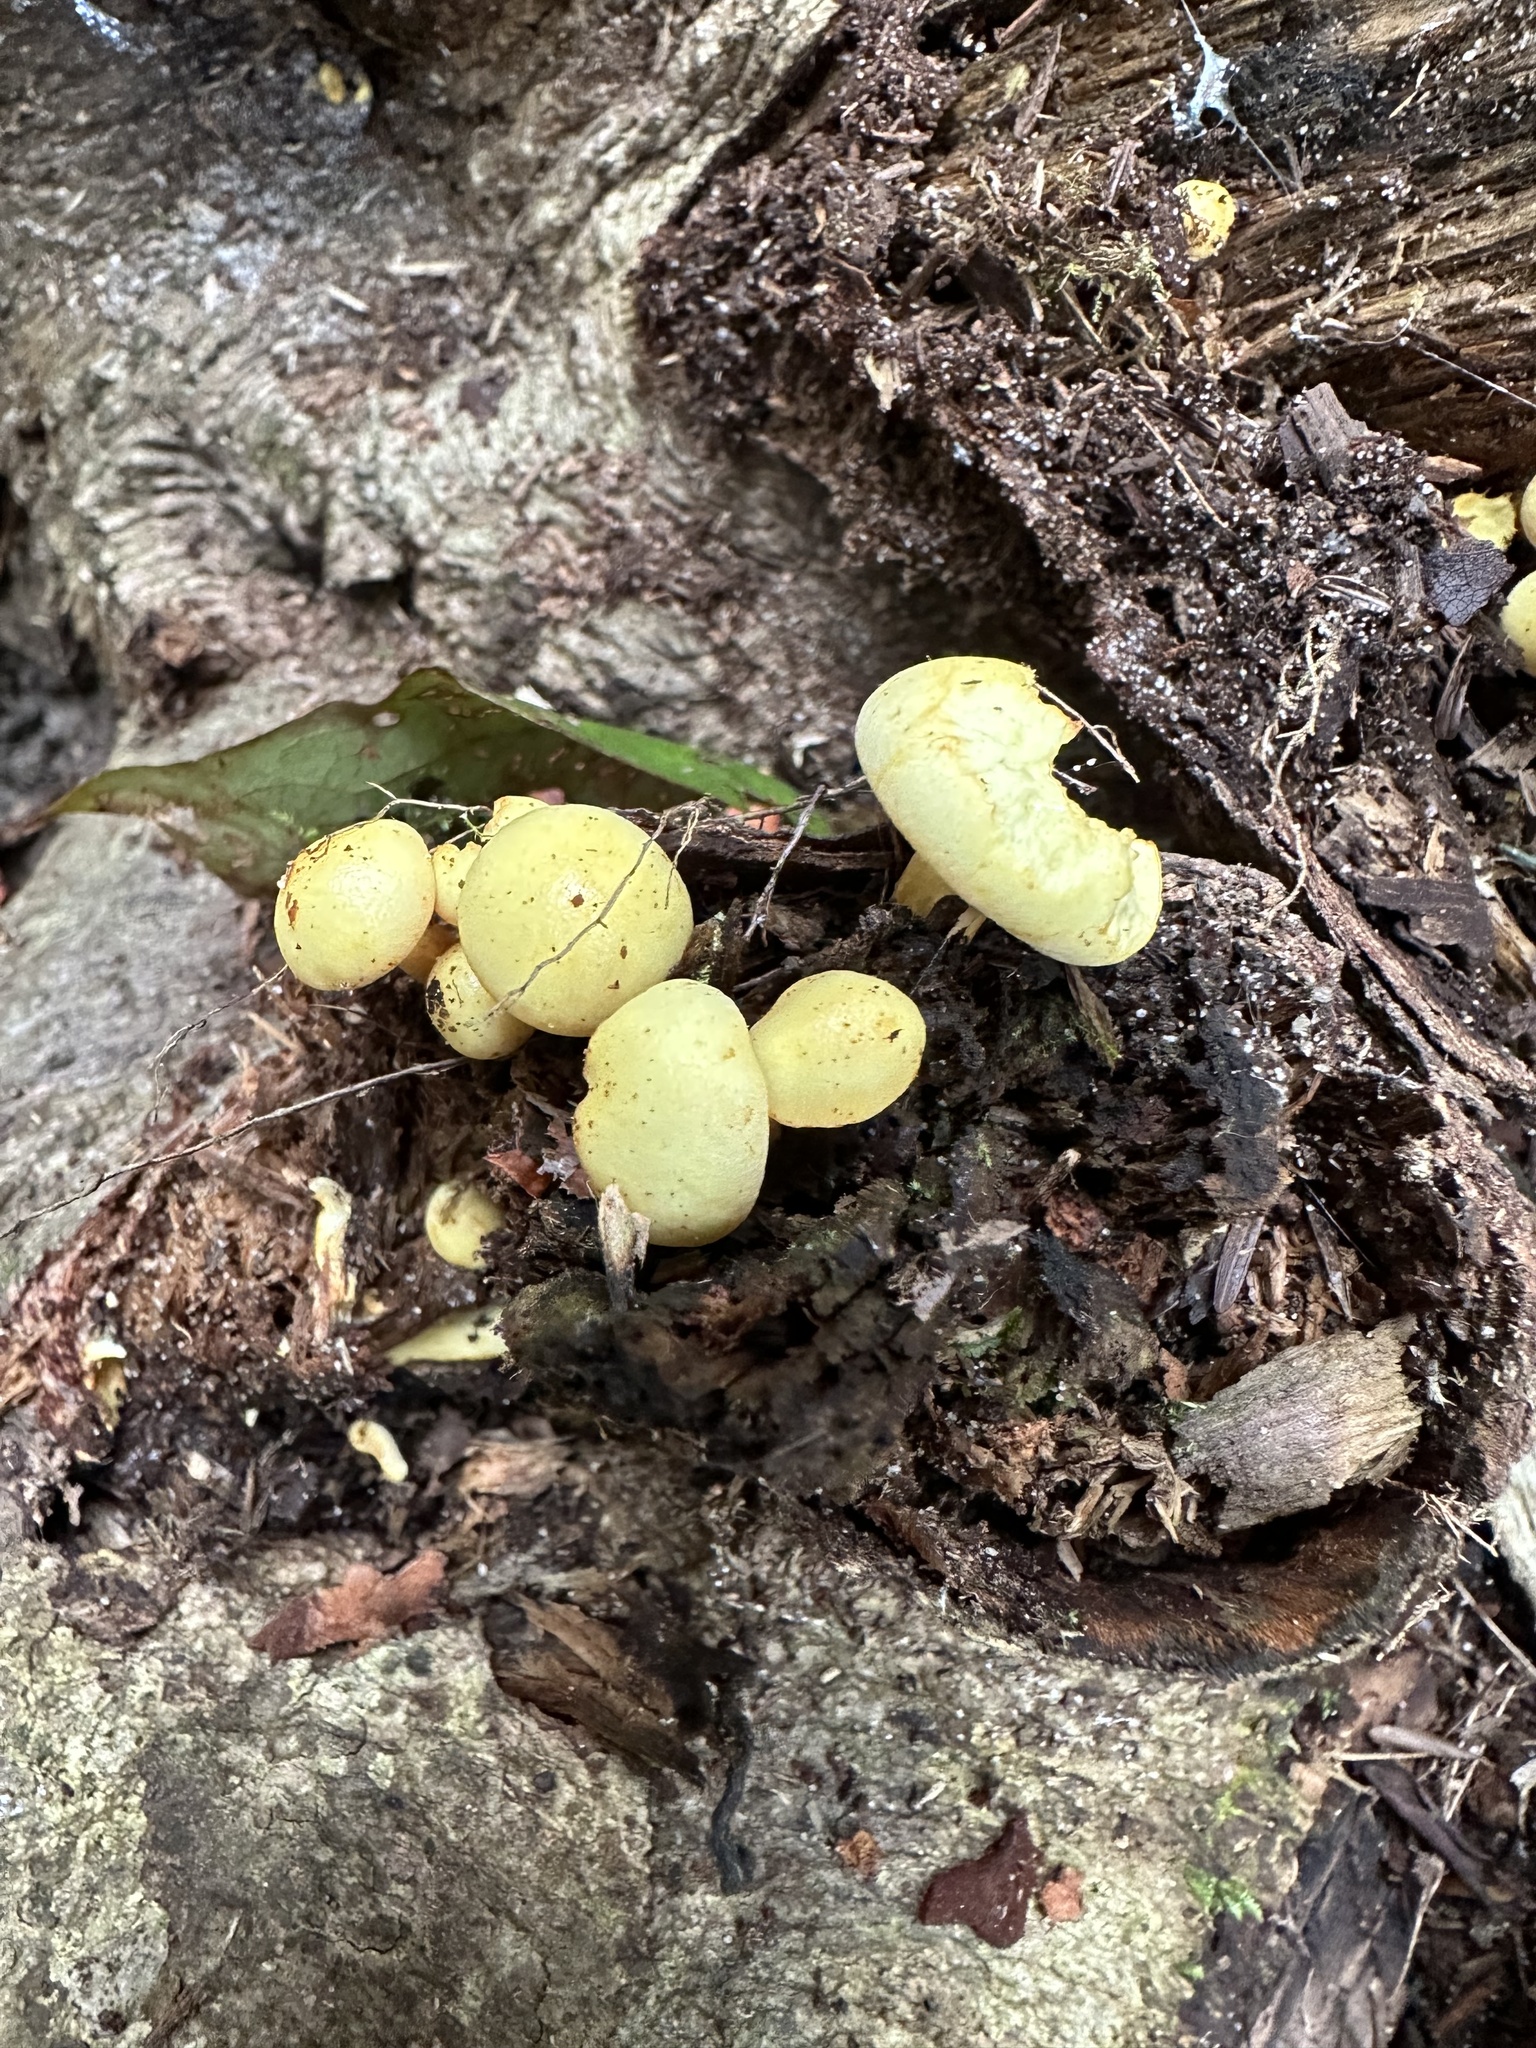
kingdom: Fungi
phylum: Basidiomycota
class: Agaricomycetes
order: Agaricales
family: Physalacriaceae
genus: Cyptotrama
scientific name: Cyptotrama chrysopepla
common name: Golden coincap
